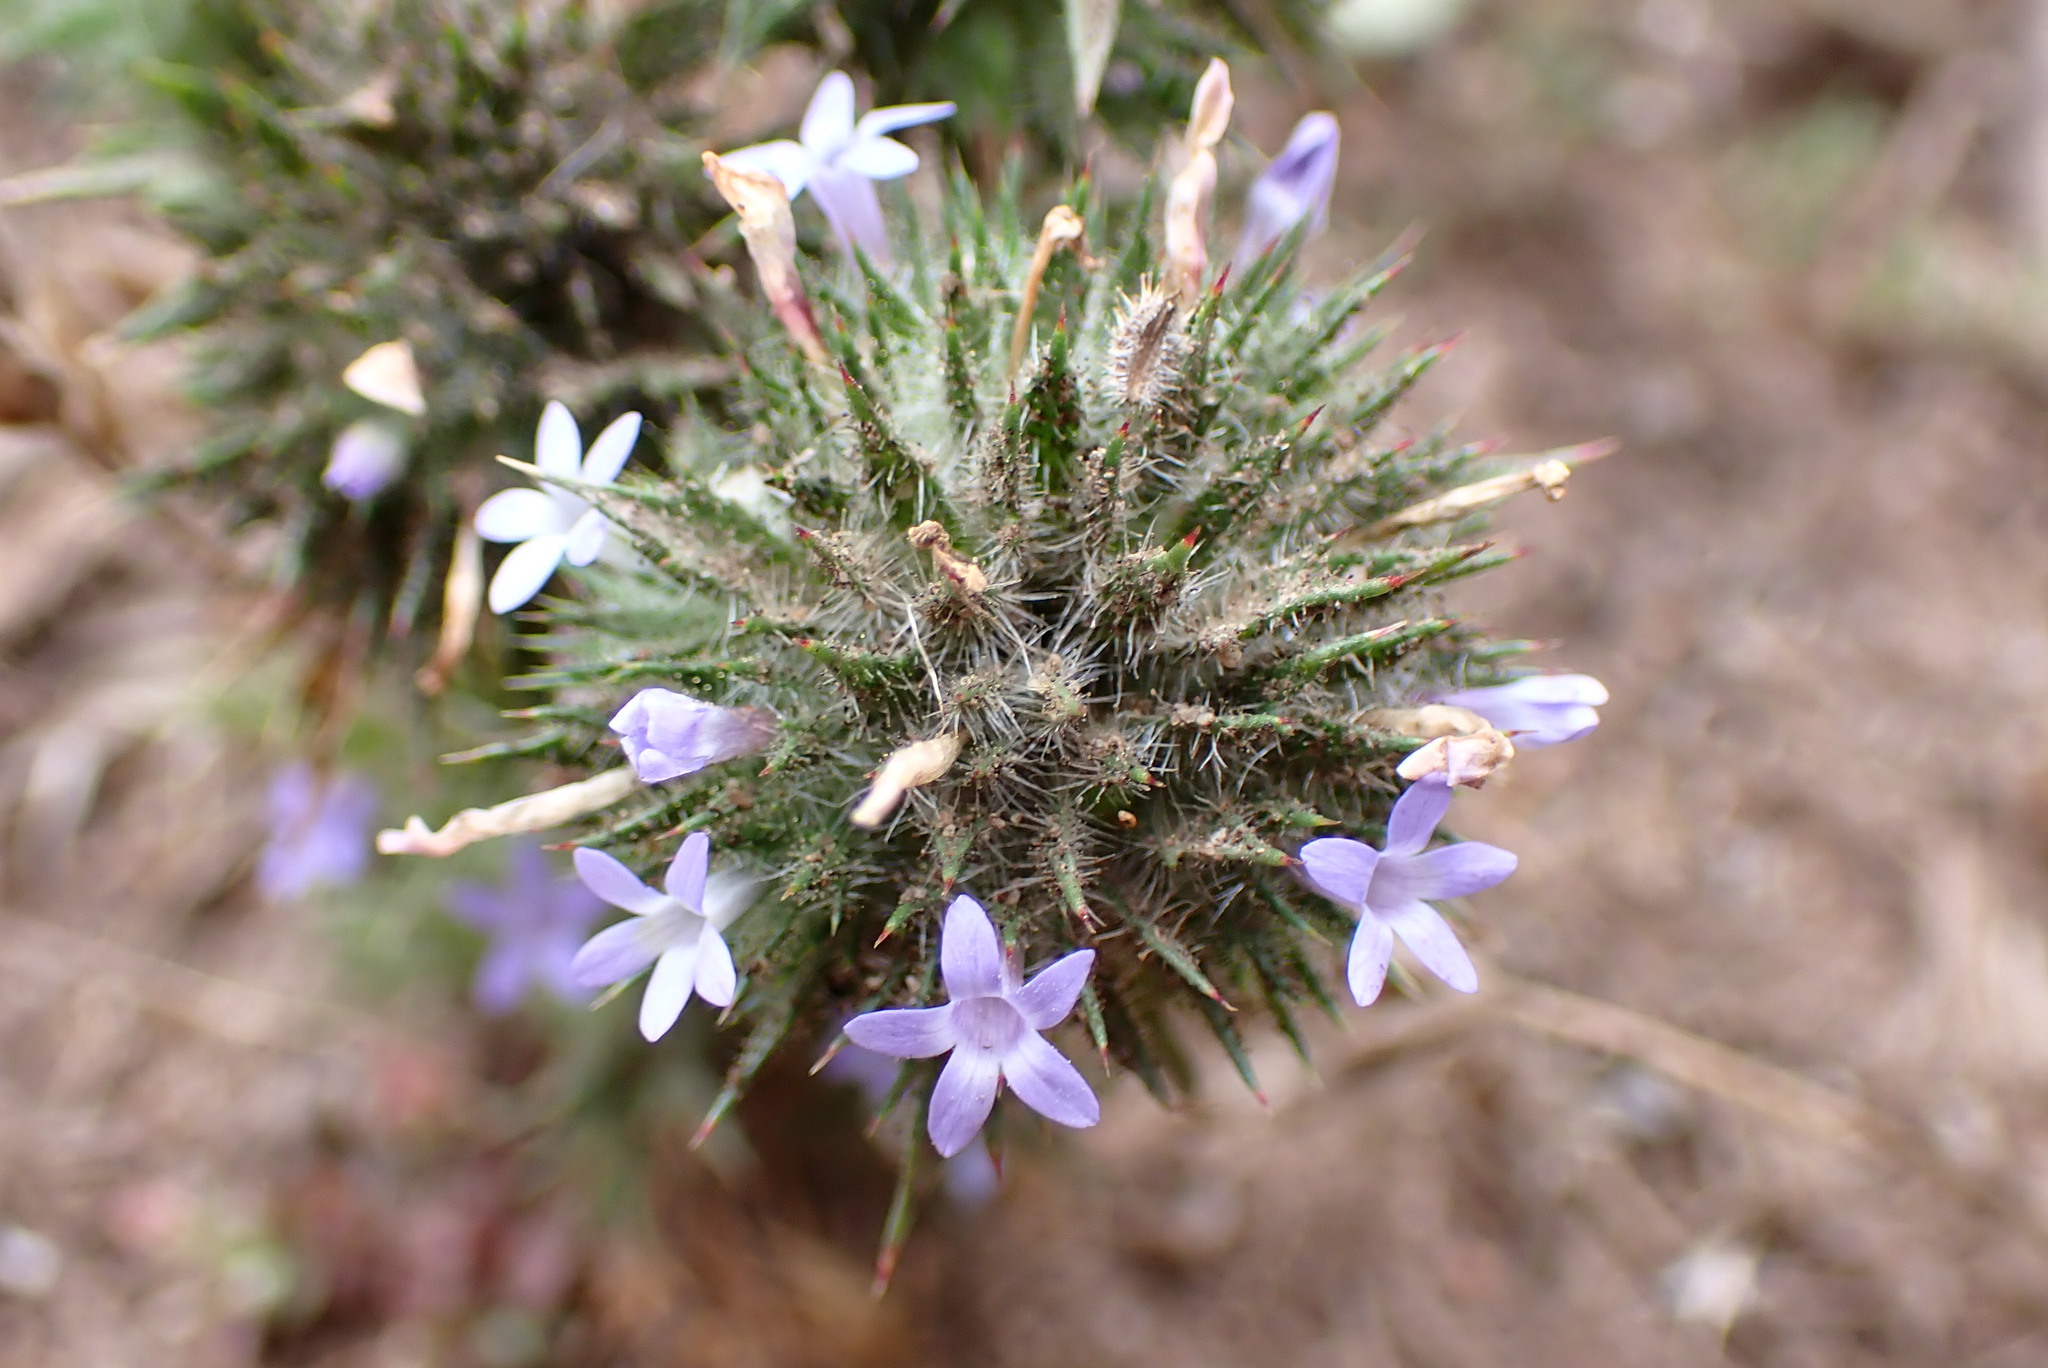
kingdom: Plantae
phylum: Tracheophyta
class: Magnoliopsida
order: Ericales
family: Polemoniaceae
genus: Navarretia
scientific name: Navarretia squarrosa
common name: Skunkweed
